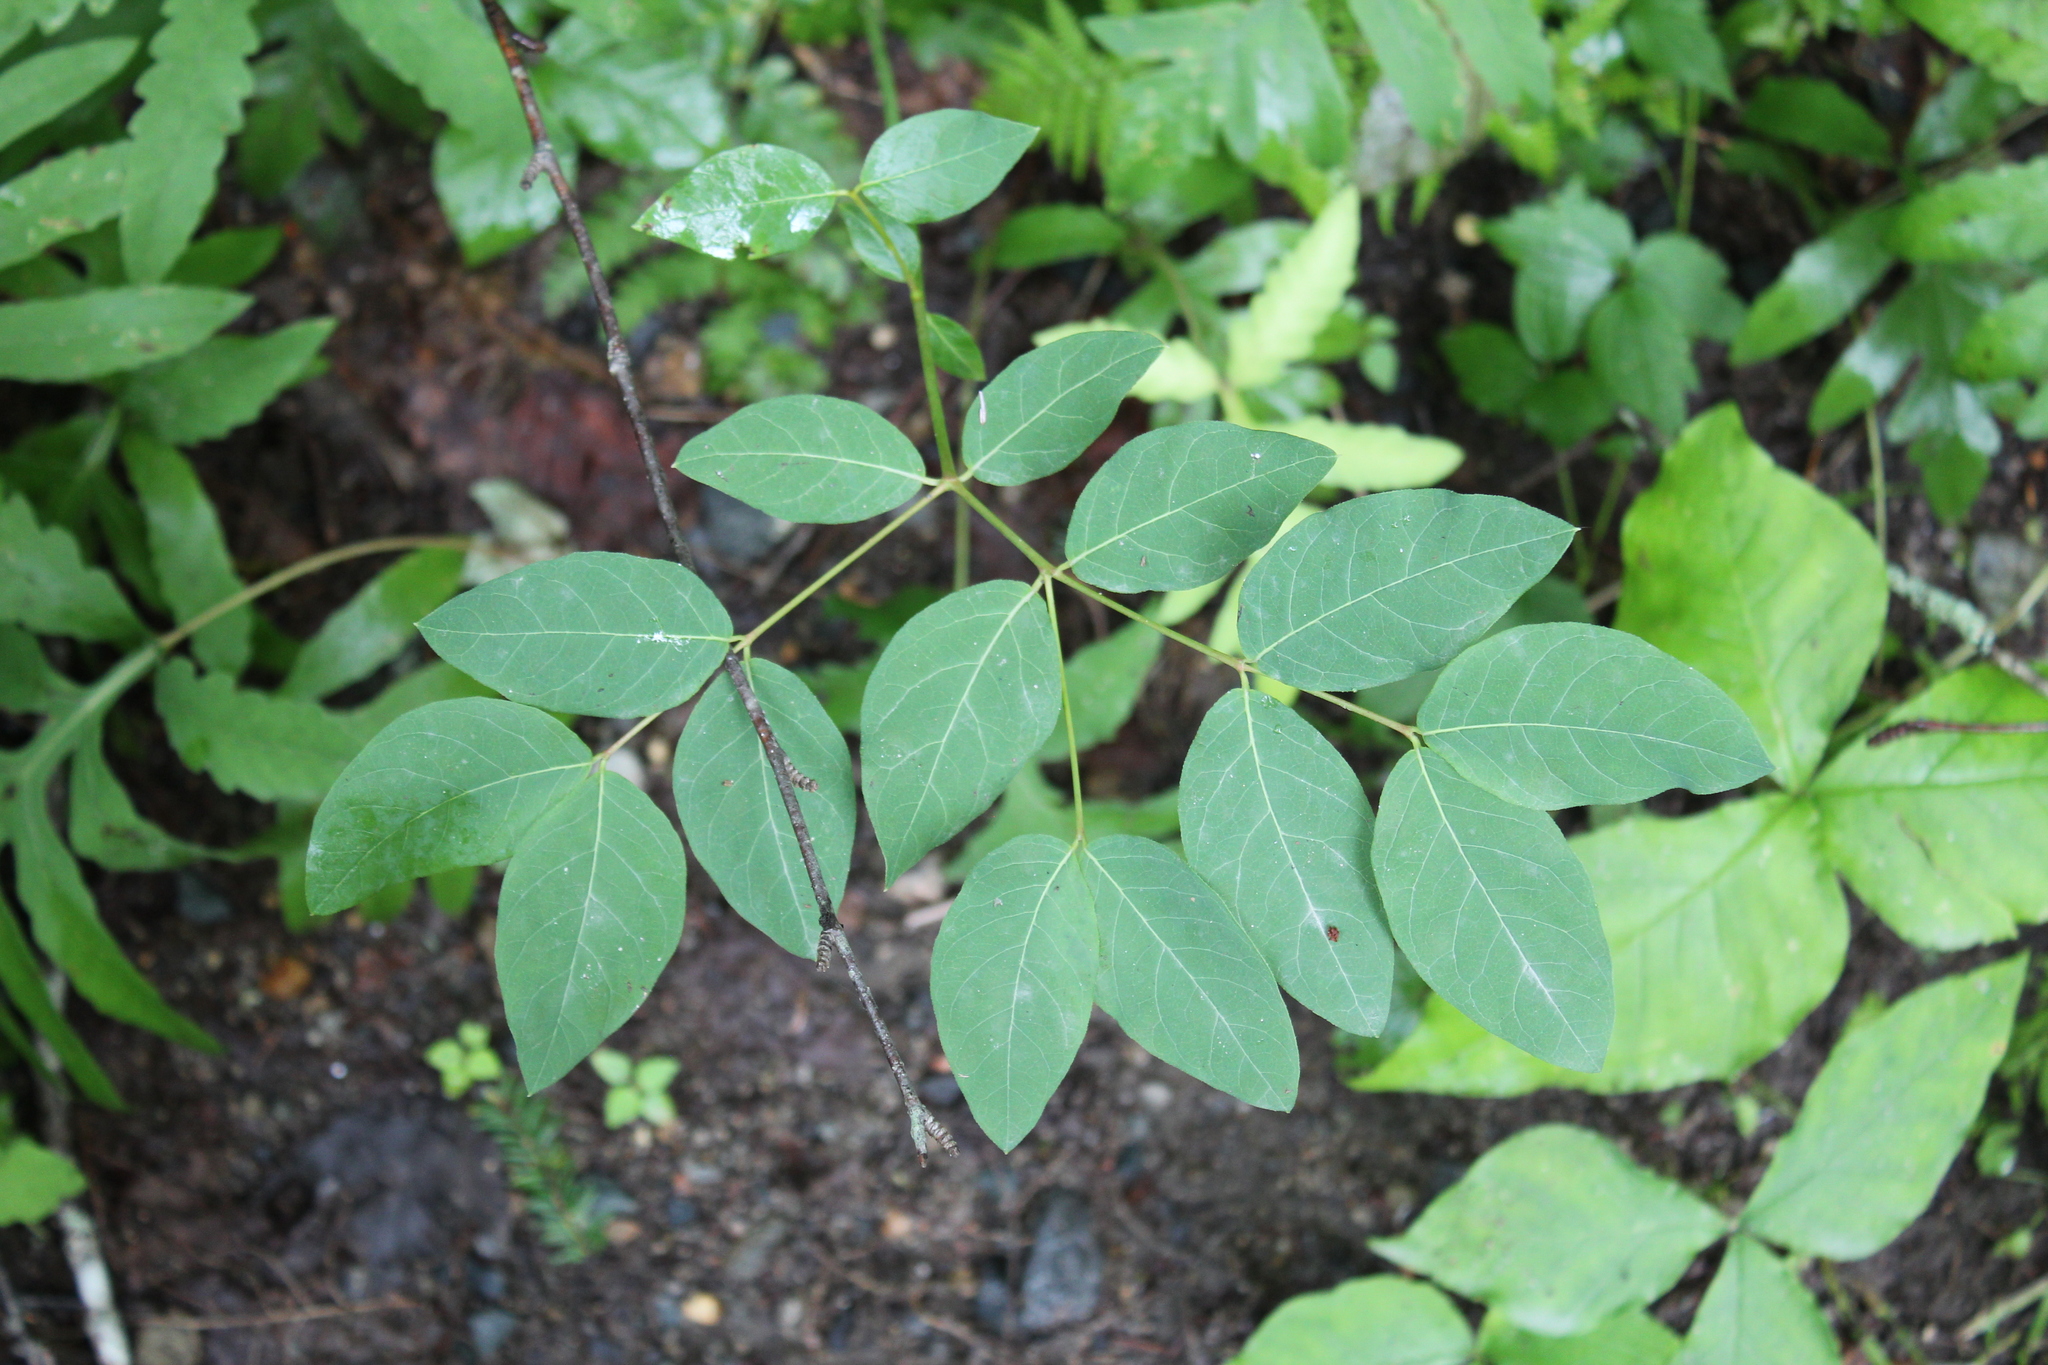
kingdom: Plantae
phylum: Tracheophyta
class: Magnoliopsida
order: Gentianales
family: Apocynaceae
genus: Apocynum
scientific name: Apocynum androsaemifolium
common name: Spreading dogbane
